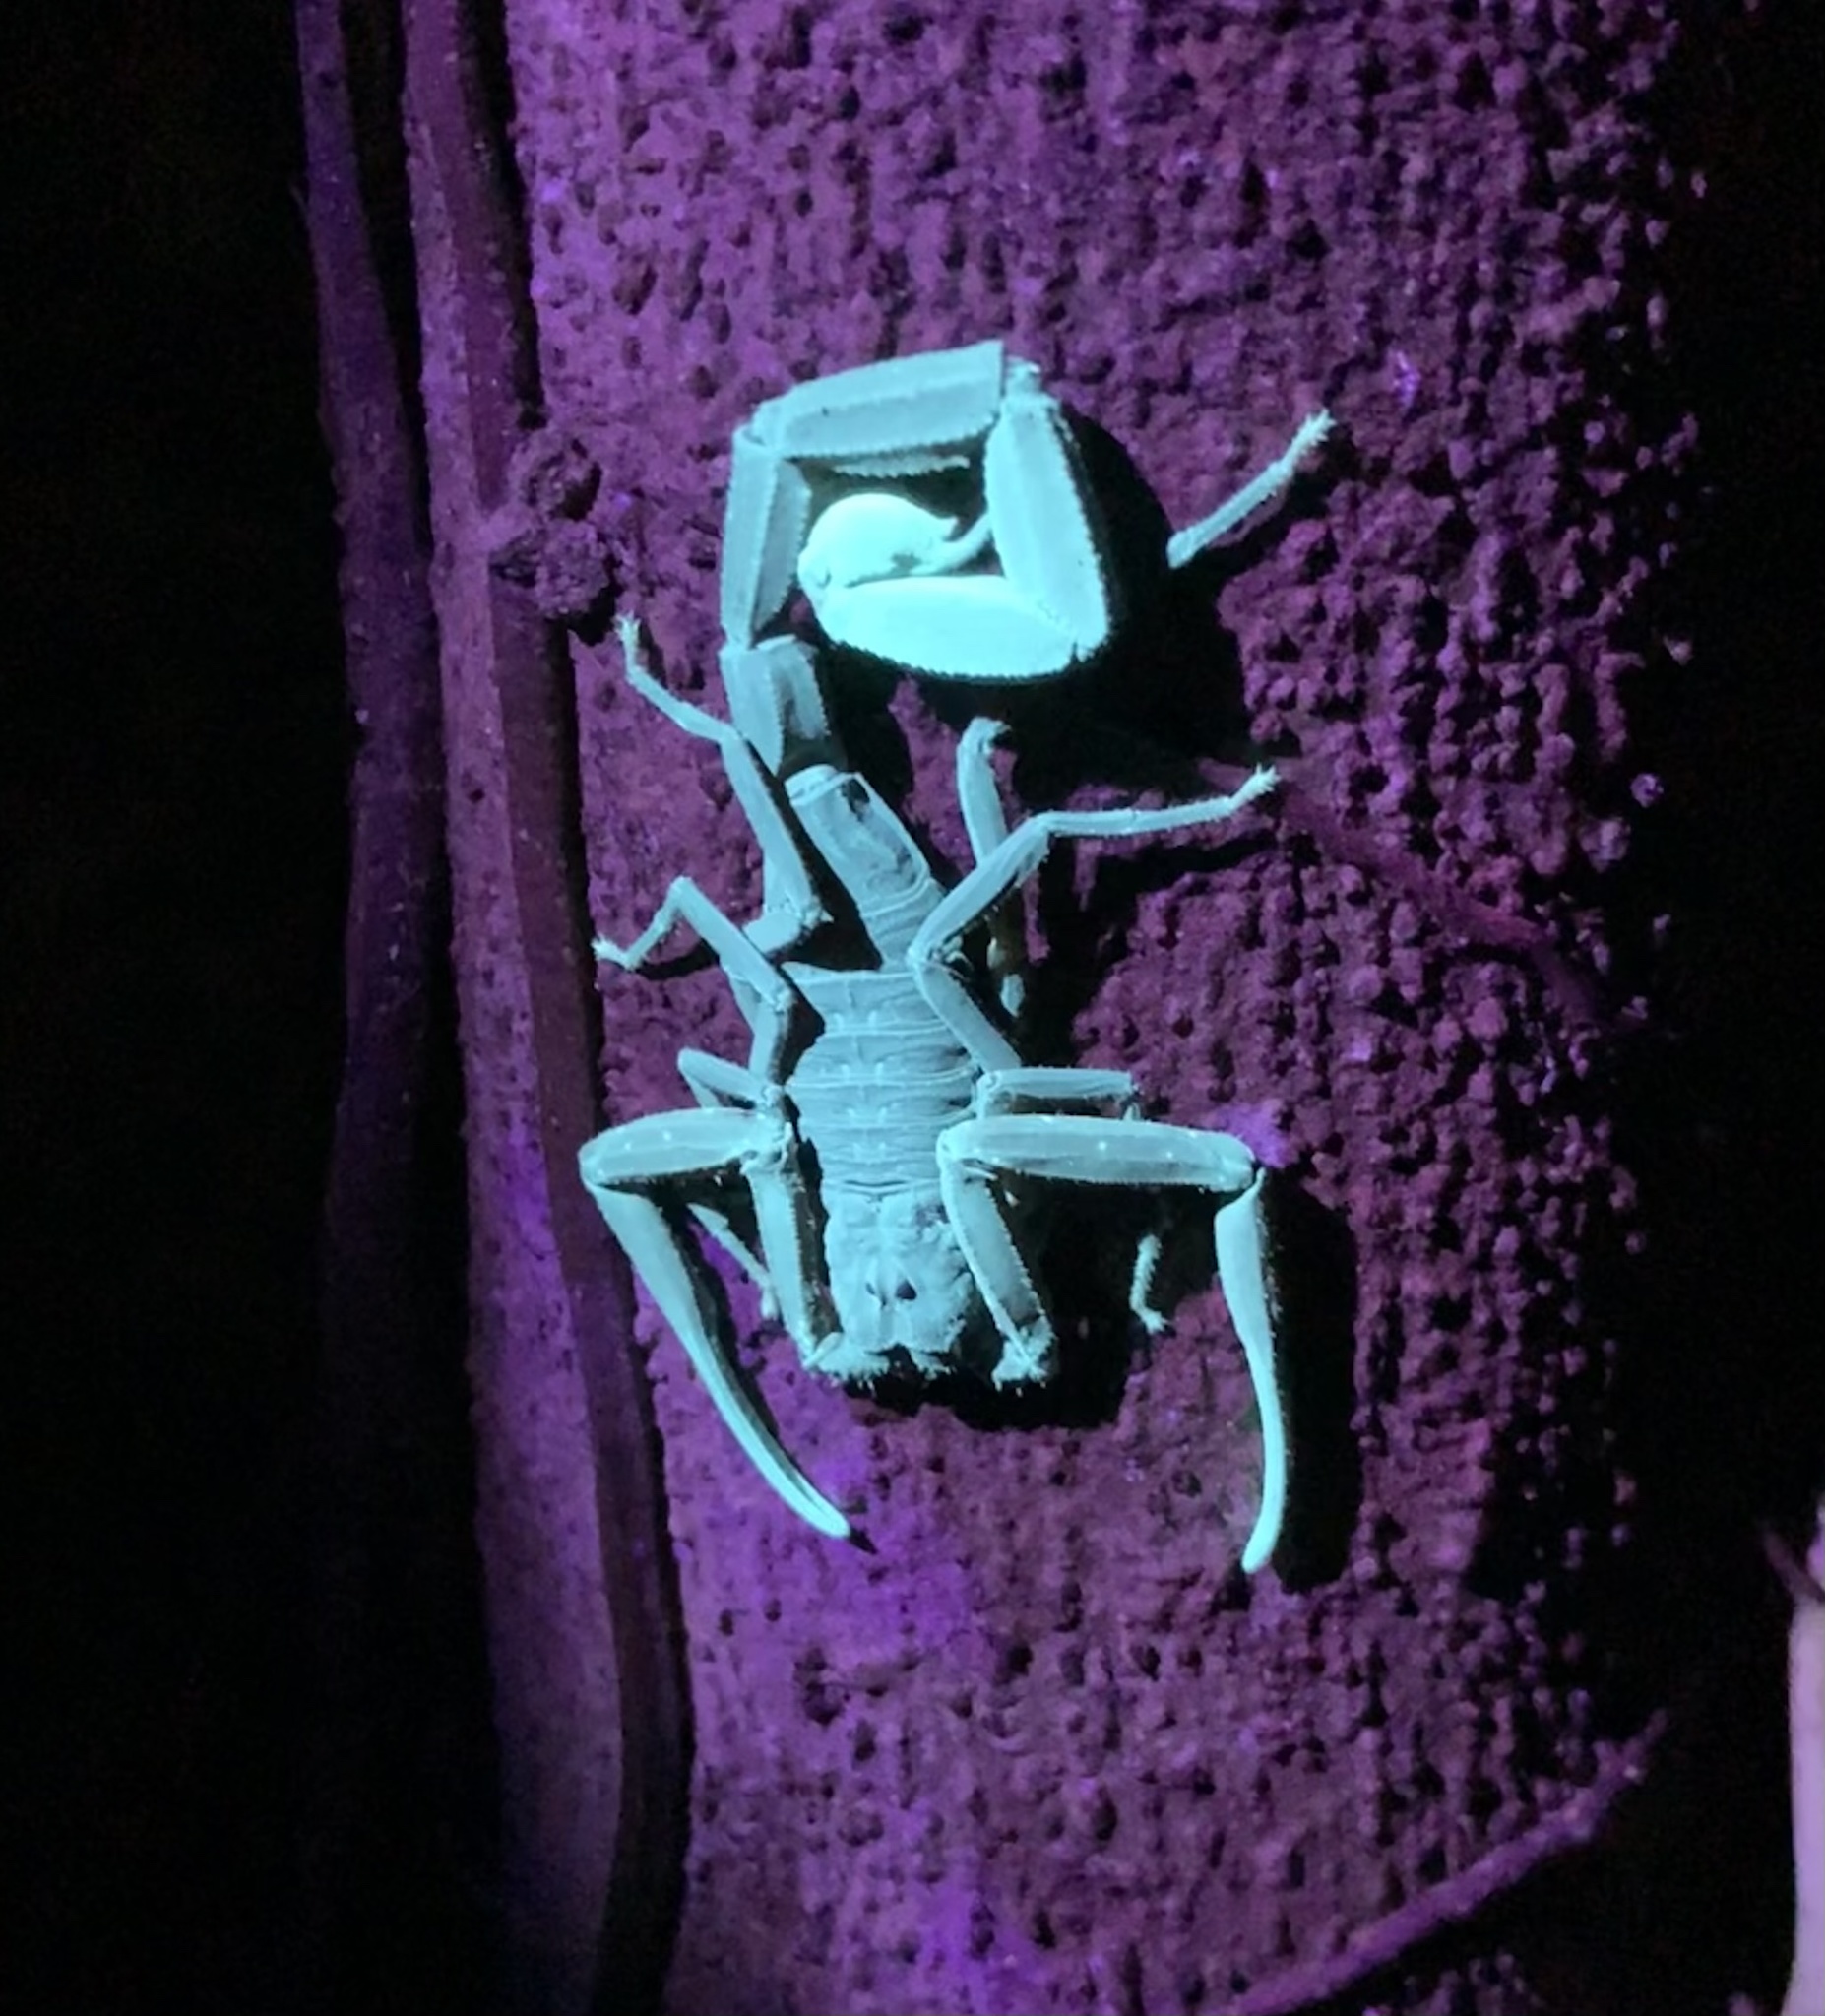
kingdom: Animalia
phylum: Arthropoda
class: Arachnida
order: Scorpiones
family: Buthidae
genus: Tityus
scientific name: Tityus dedoslargos
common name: Scorpions
